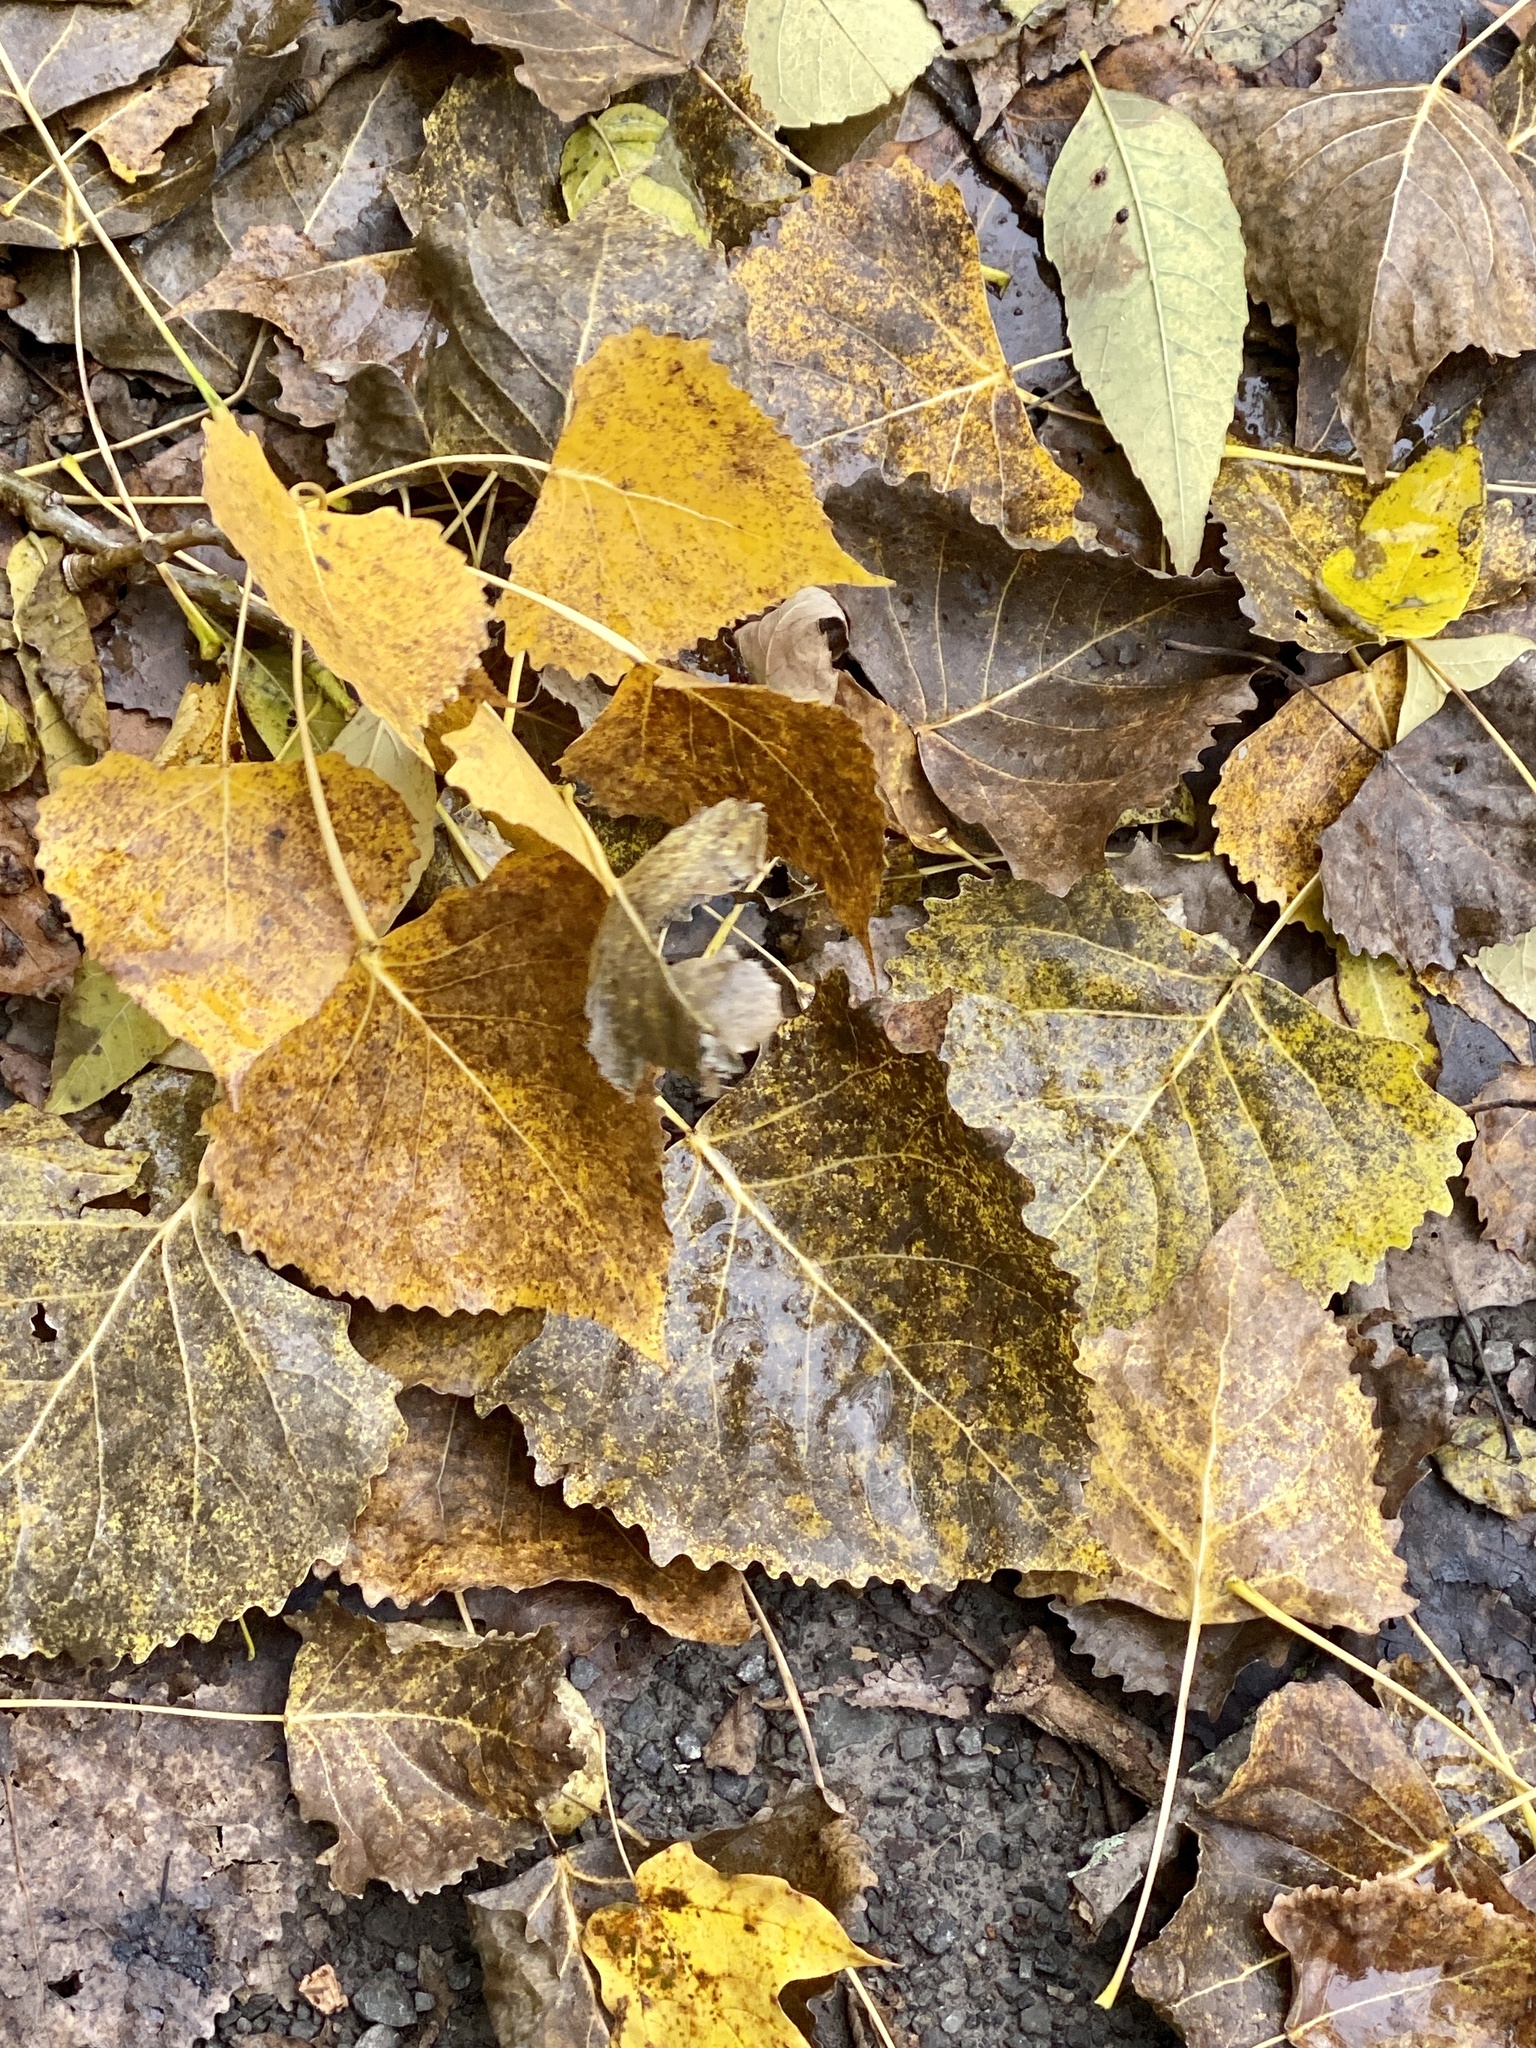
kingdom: Plantae
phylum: Tracheophyta
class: Magnoliopsida
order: Malpighiales
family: Salicaceae
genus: Populus
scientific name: Populus deltoides
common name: Eastern cottonwood
